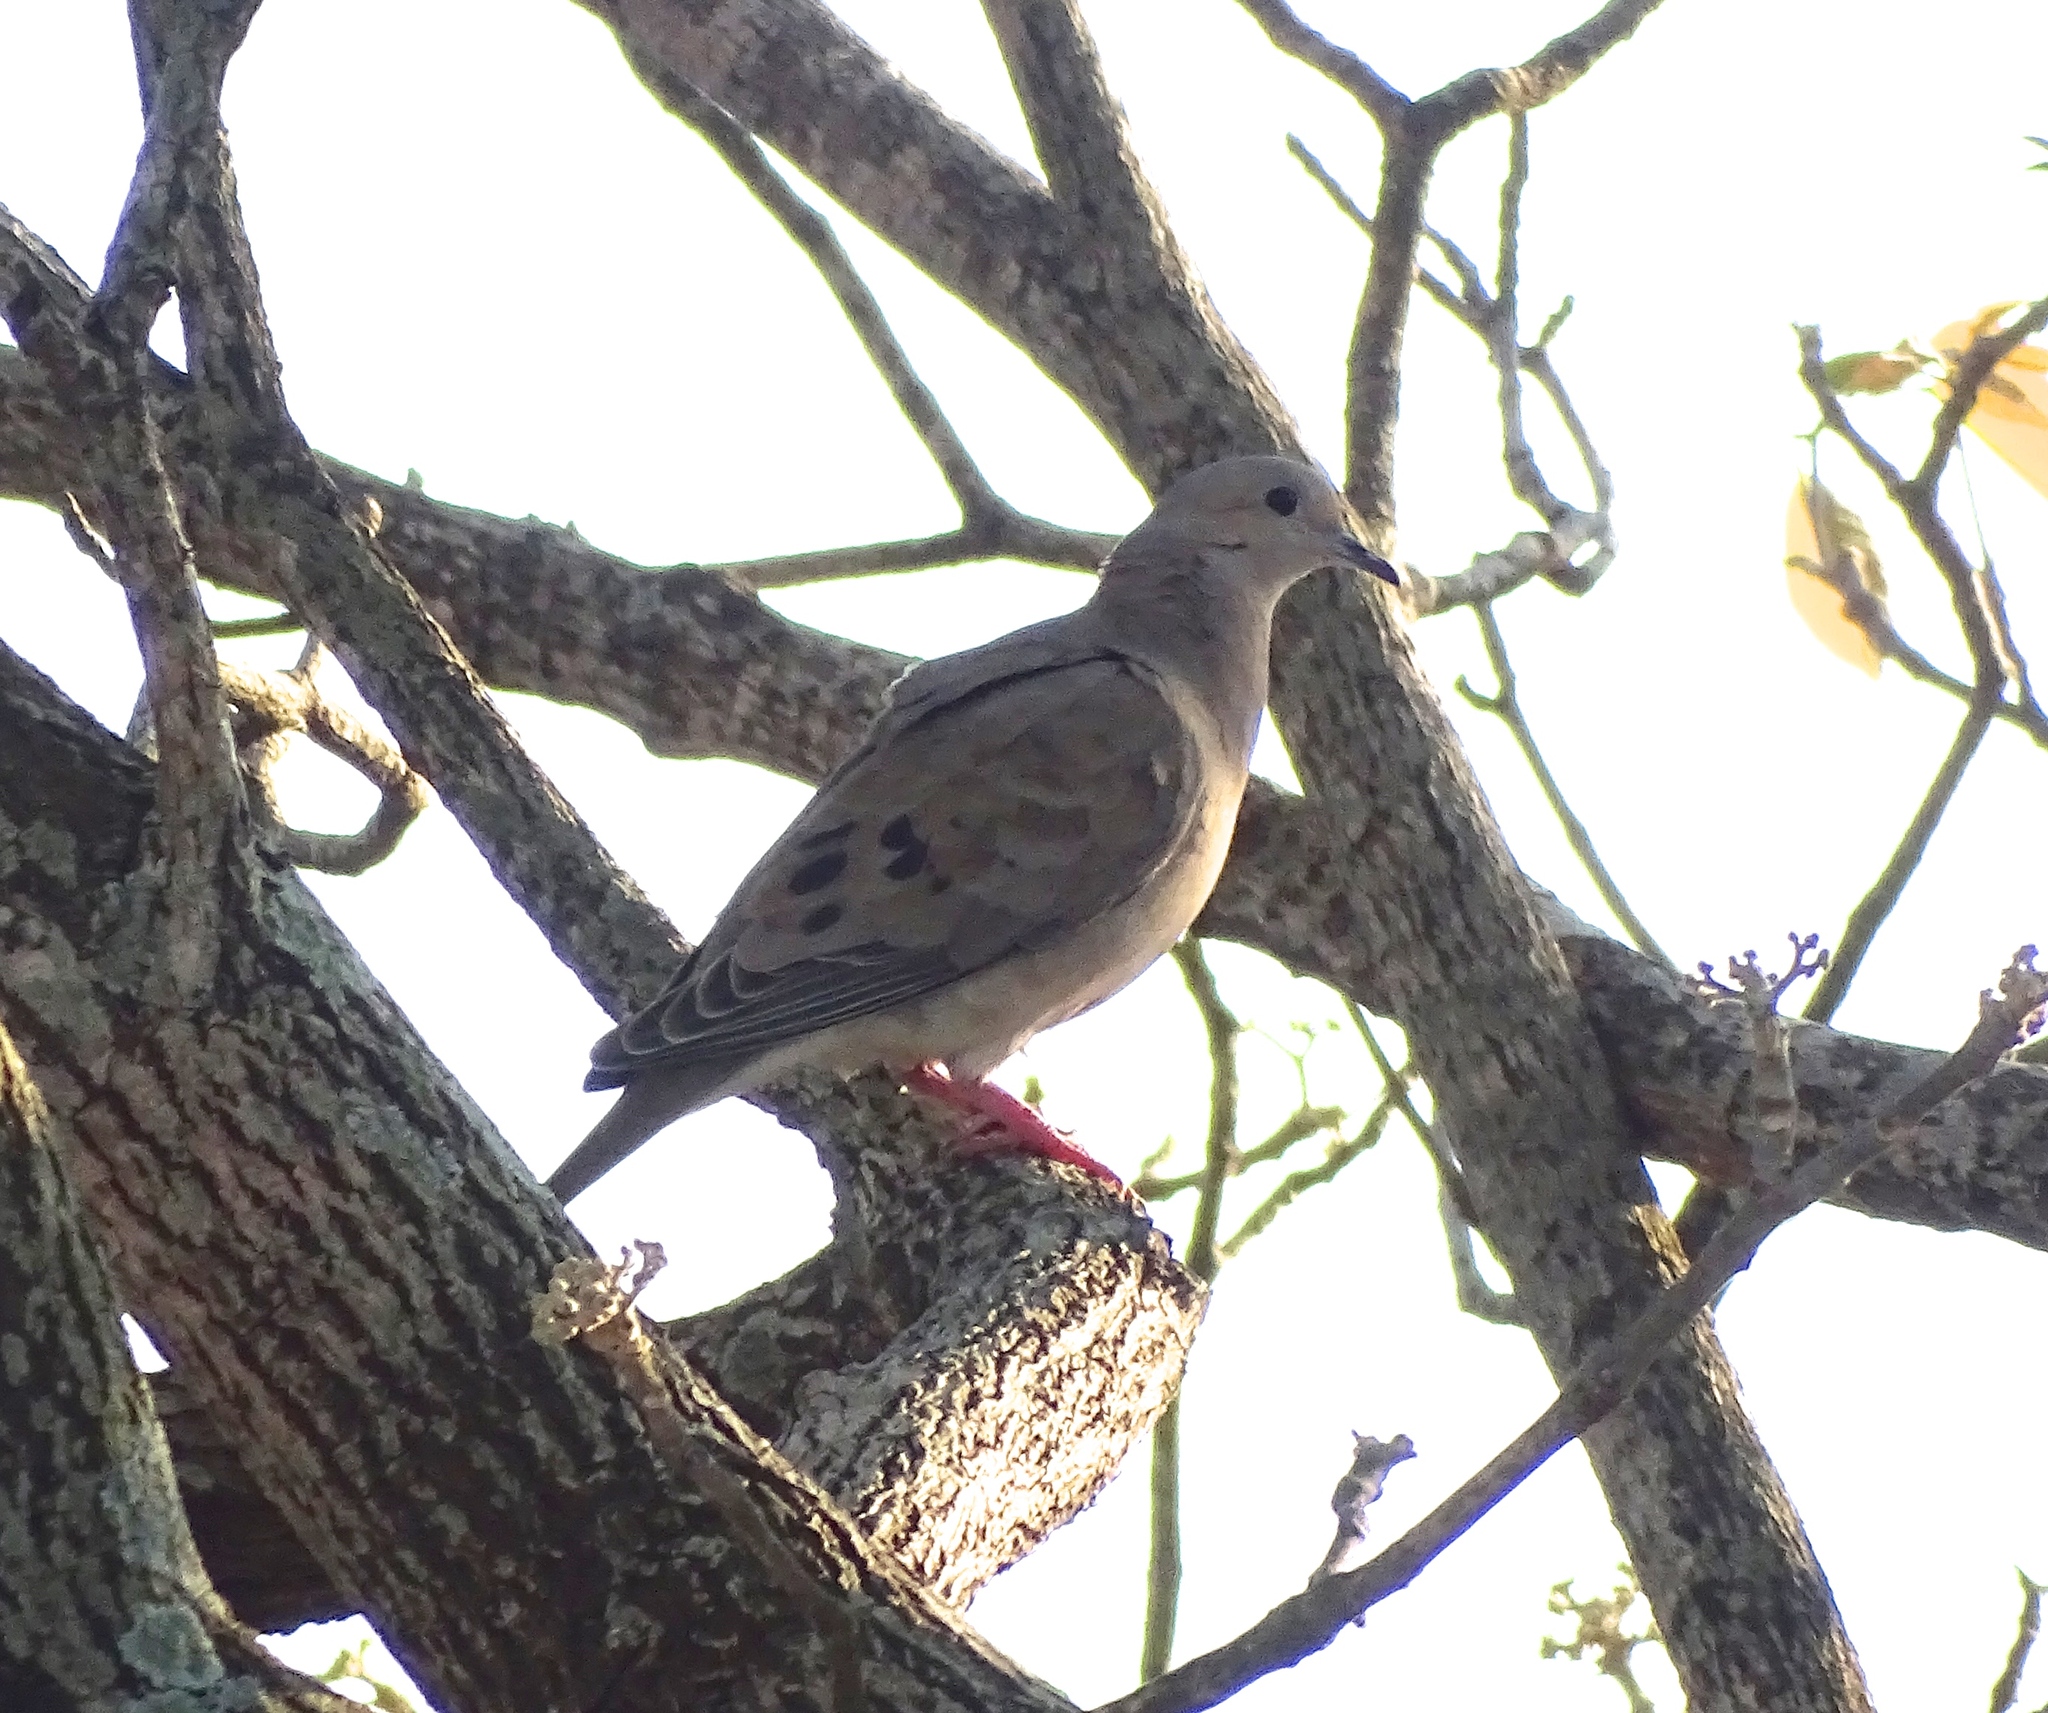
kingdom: Animalia
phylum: Chordata
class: Aves
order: Columbiformes
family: Columbidae
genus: Zenaida
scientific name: Zenaida auriculata
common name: Eared dove
